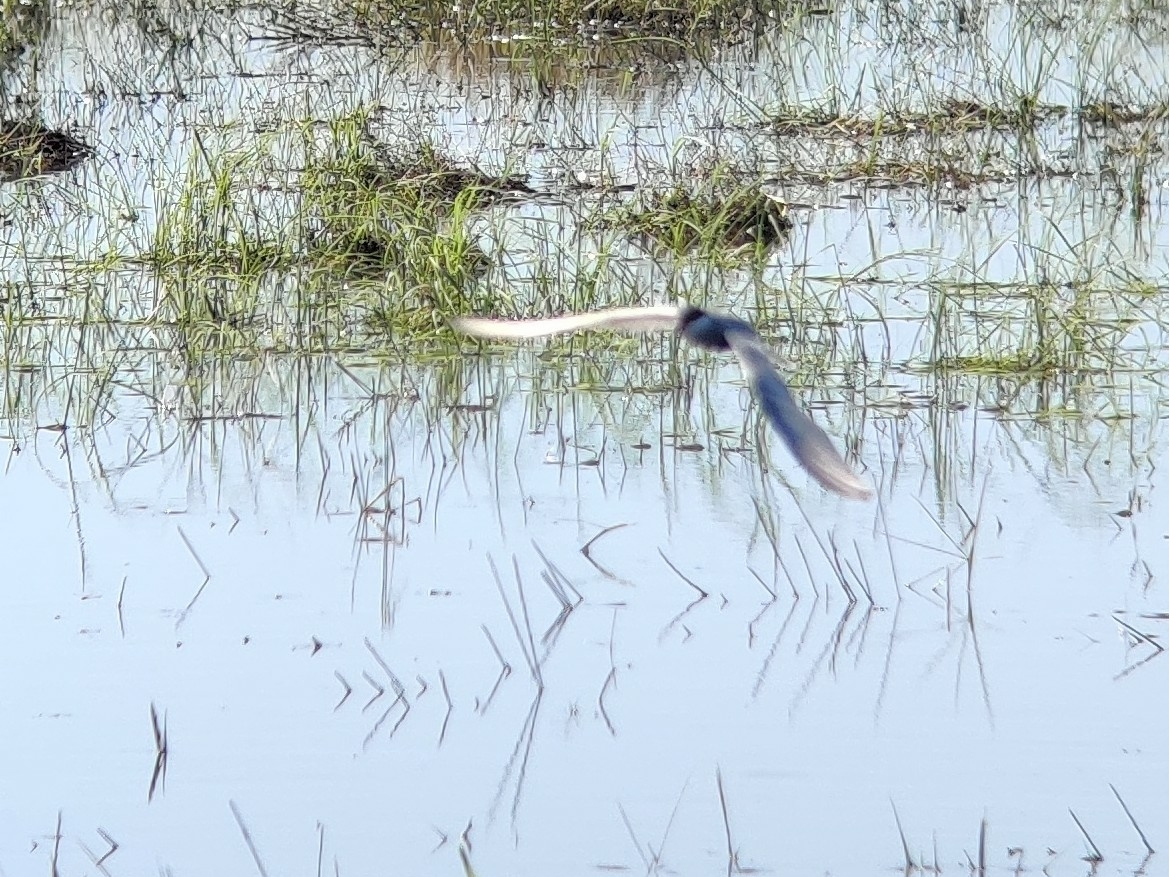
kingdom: Animalia
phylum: Chordata
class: Aves
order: Charadriiformes
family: Laridae
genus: Chlidonias
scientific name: Chlidonias hybrida
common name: Whiskered tern
